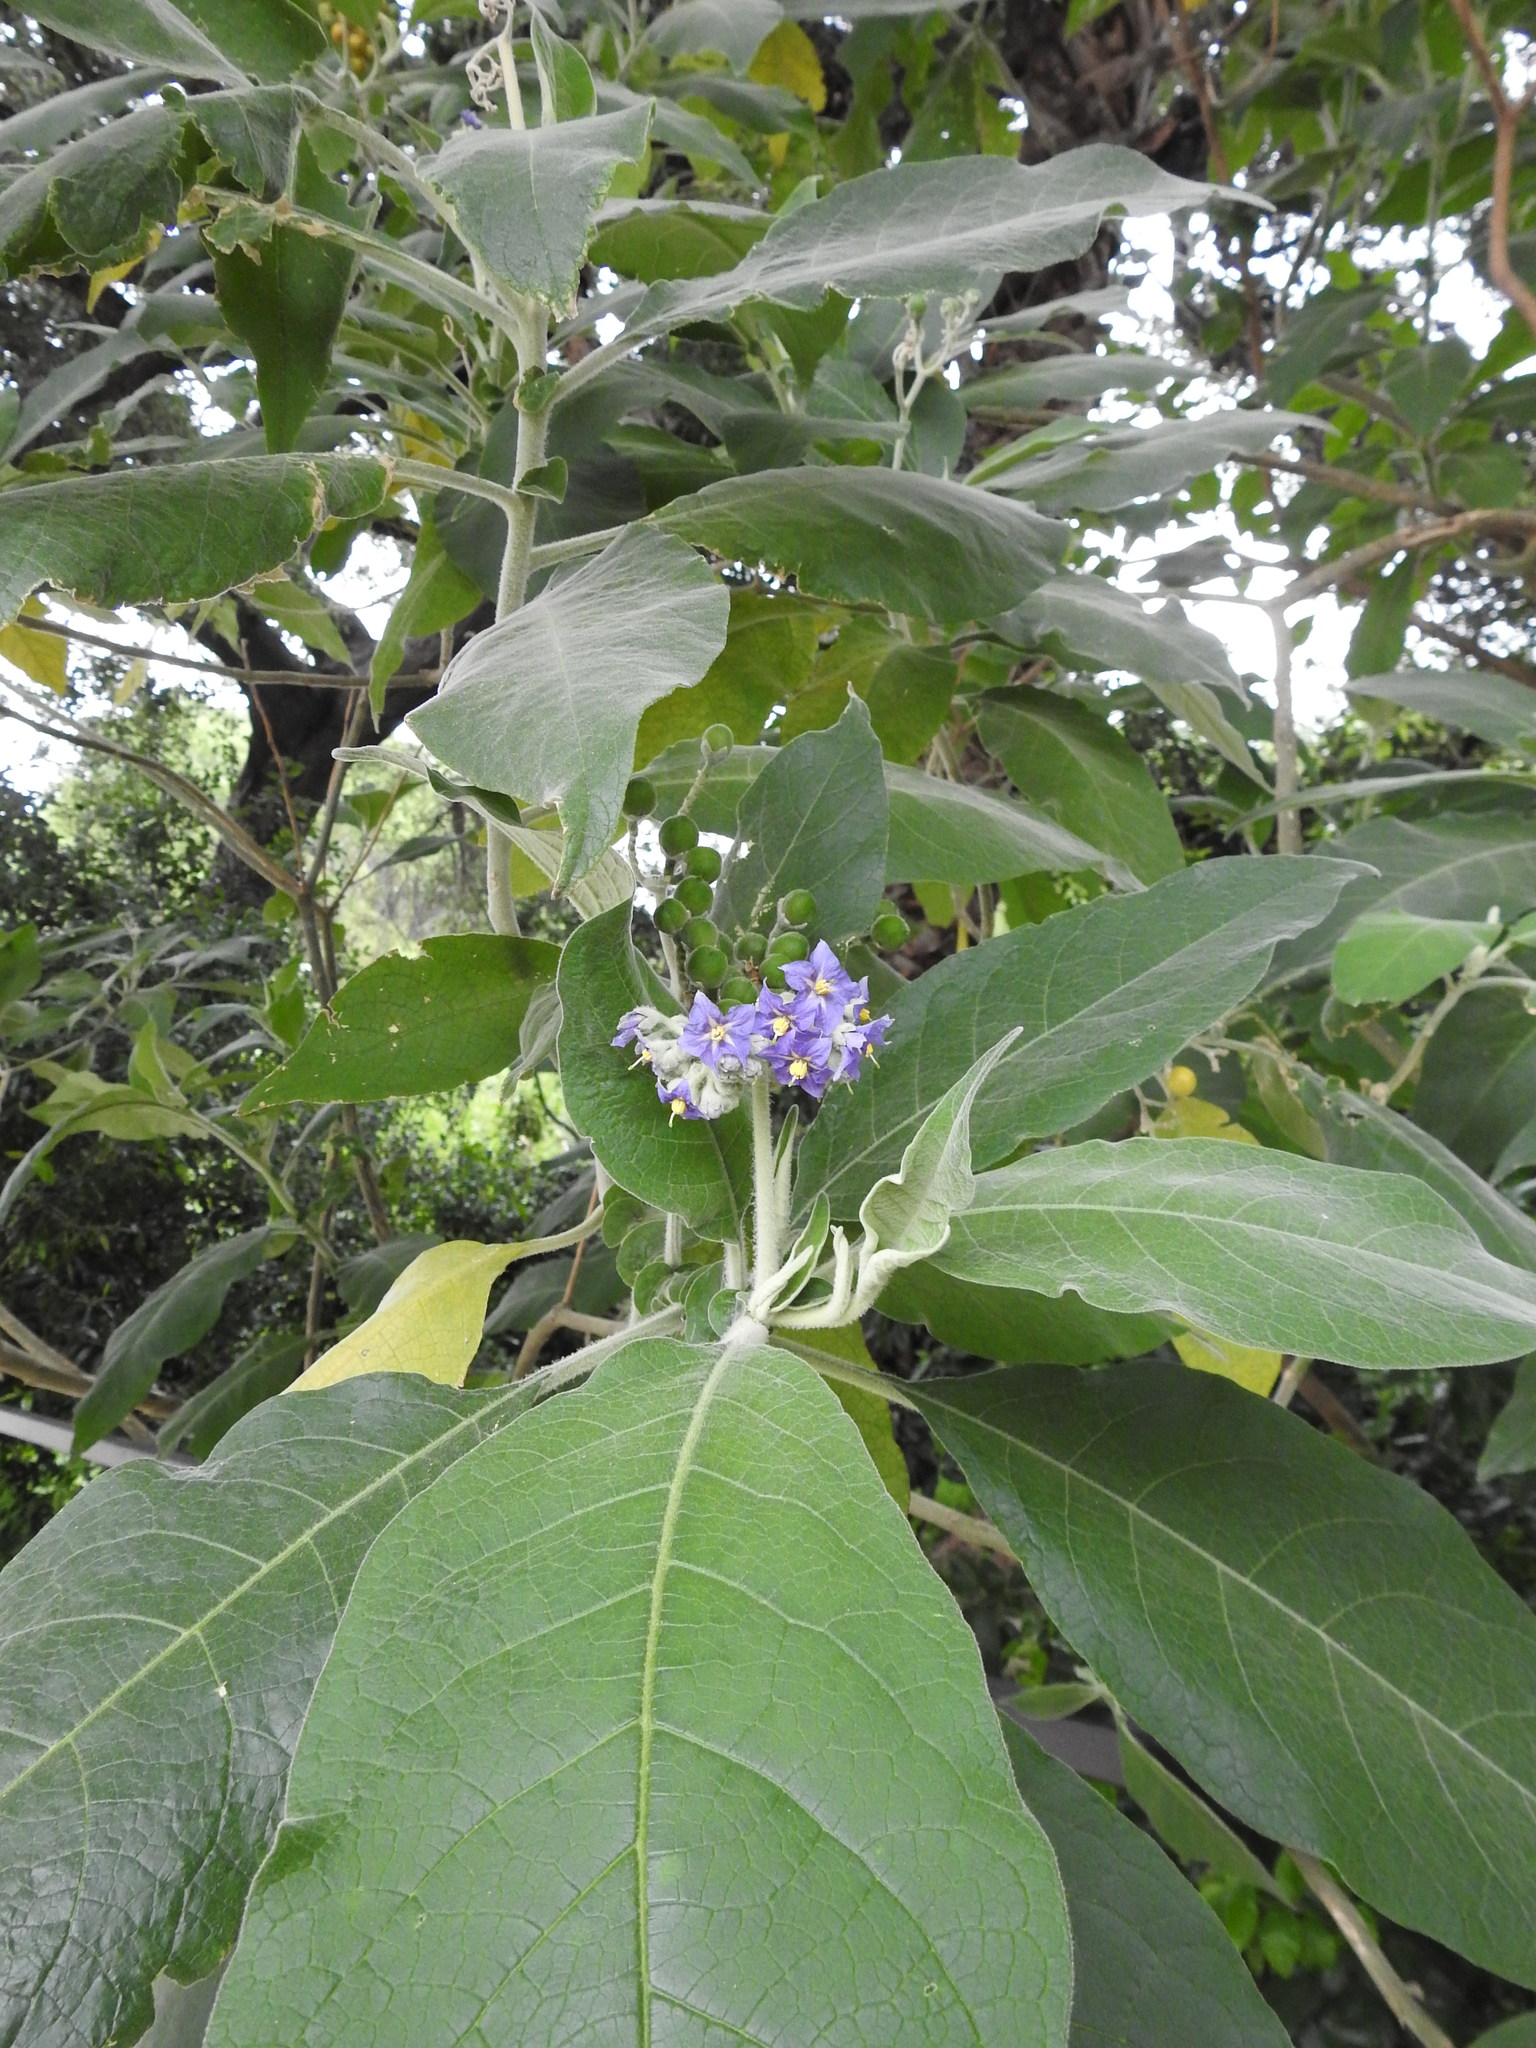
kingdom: Plantae
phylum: Tracheophyta
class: Magnoliopsida
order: Solanales
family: Solanaceae
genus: Solanum
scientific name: Solanum mauritianum
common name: Earleaf nightshade
